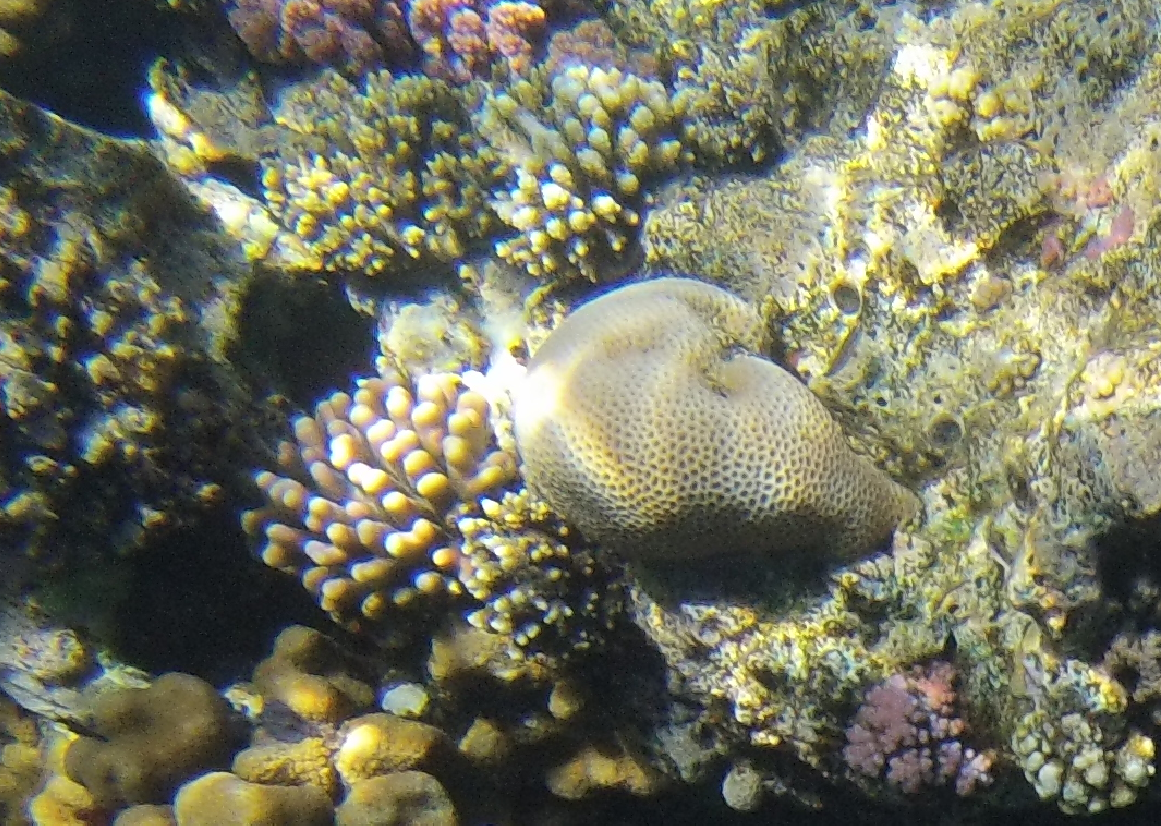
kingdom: Animalia
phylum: Cnidaria
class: Anthozoa
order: Scleractinia
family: Merulinidae
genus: Goniastrea
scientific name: Goniastrea pectinata
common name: Lesser star coral
